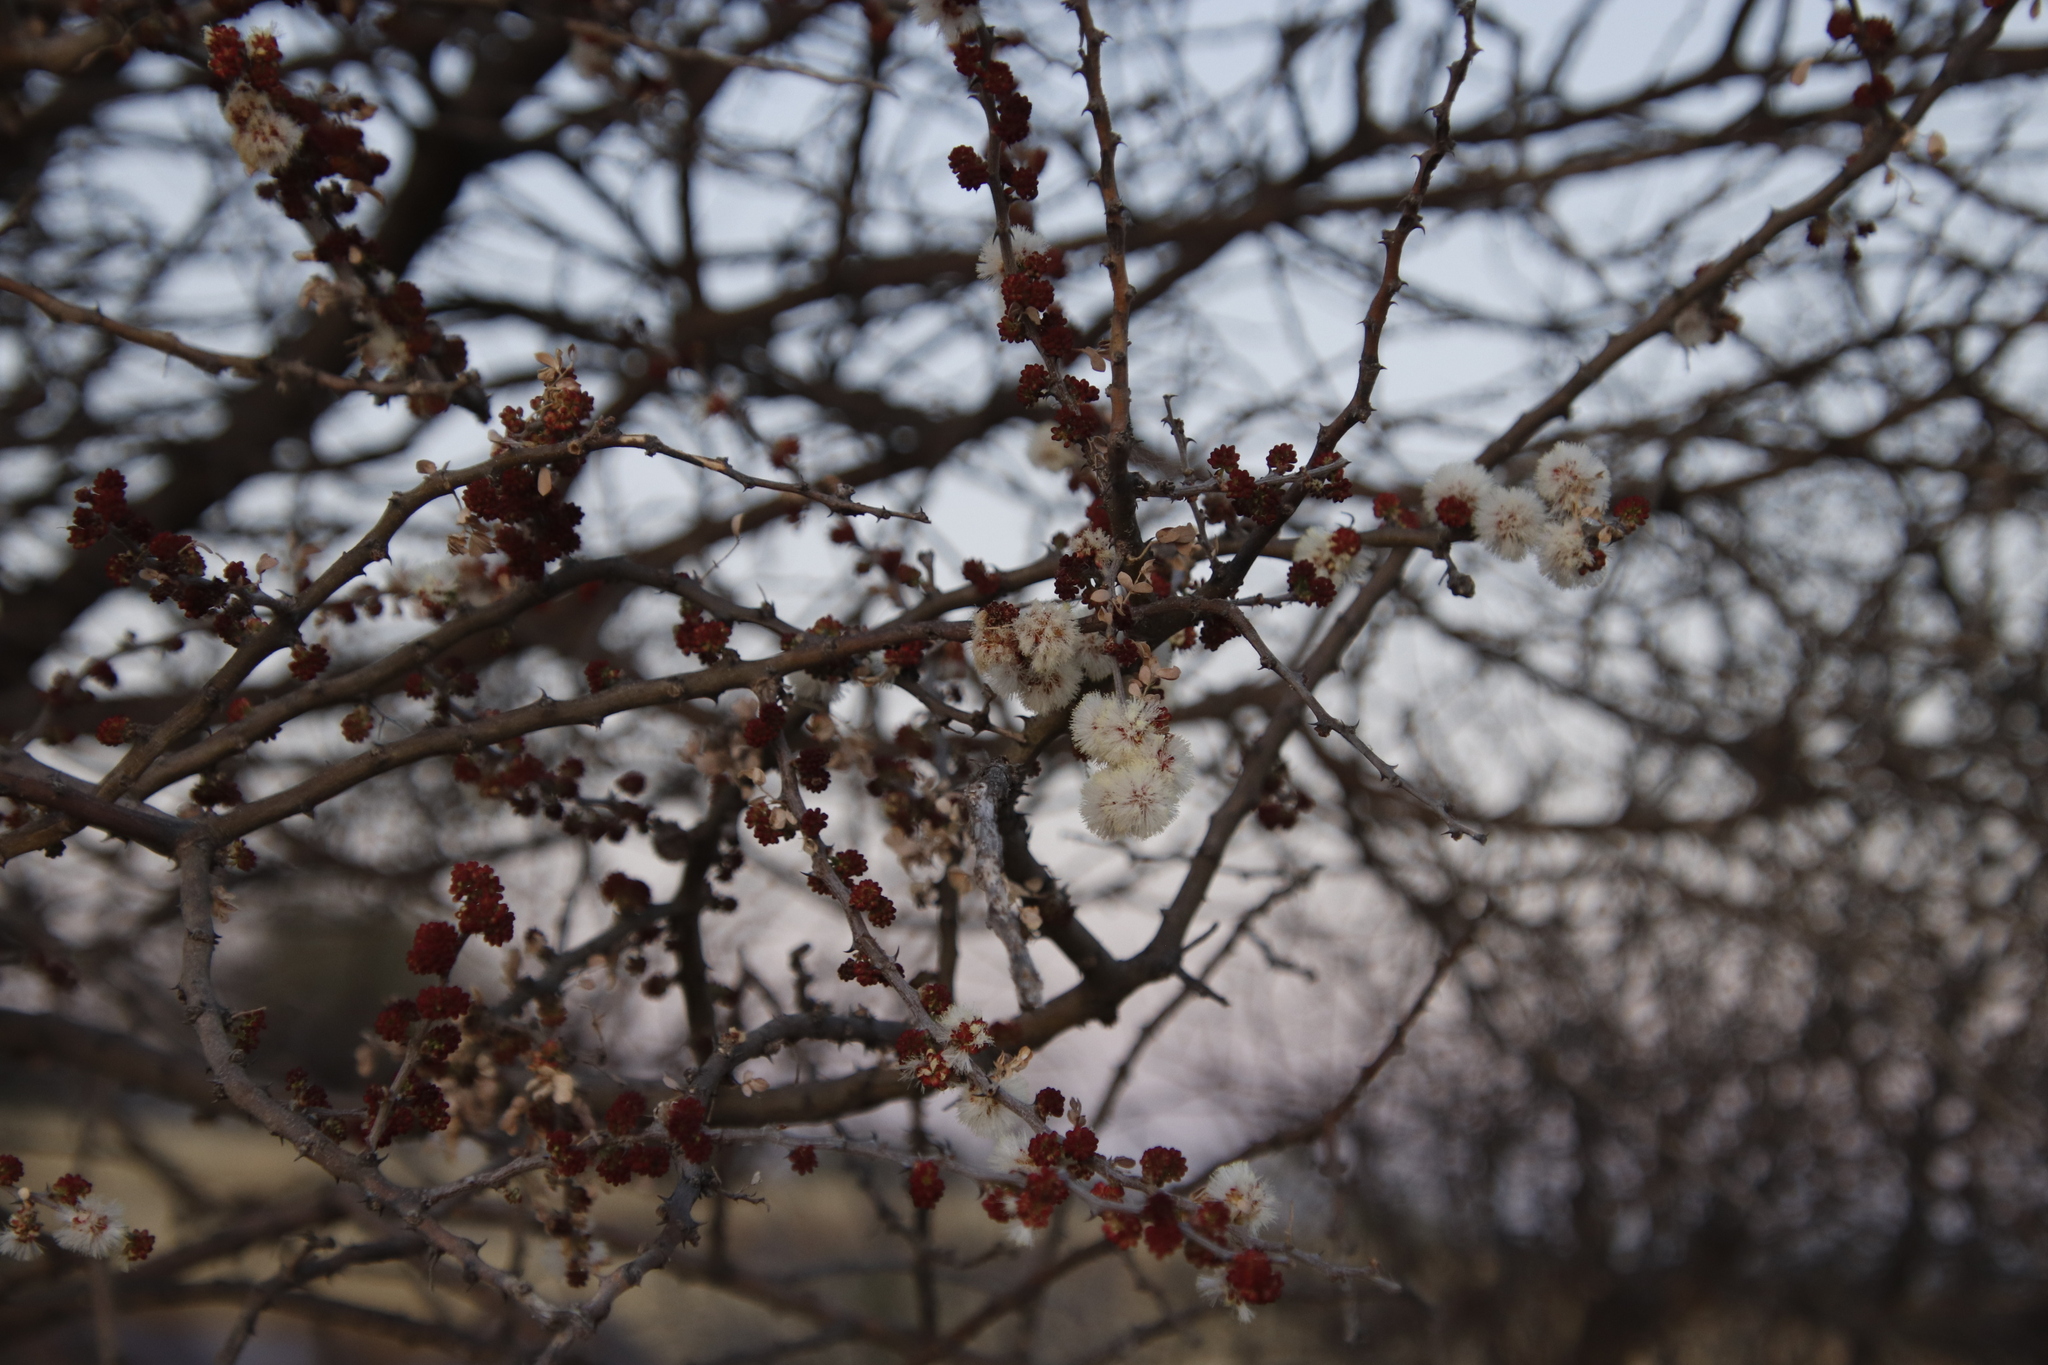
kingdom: Plantae
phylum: Tracheophyta
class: Magnoliopsida
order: Fabales
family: Fabaceae
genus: Senegalia
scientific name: Senegalia mellifera
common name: Hookthorn
